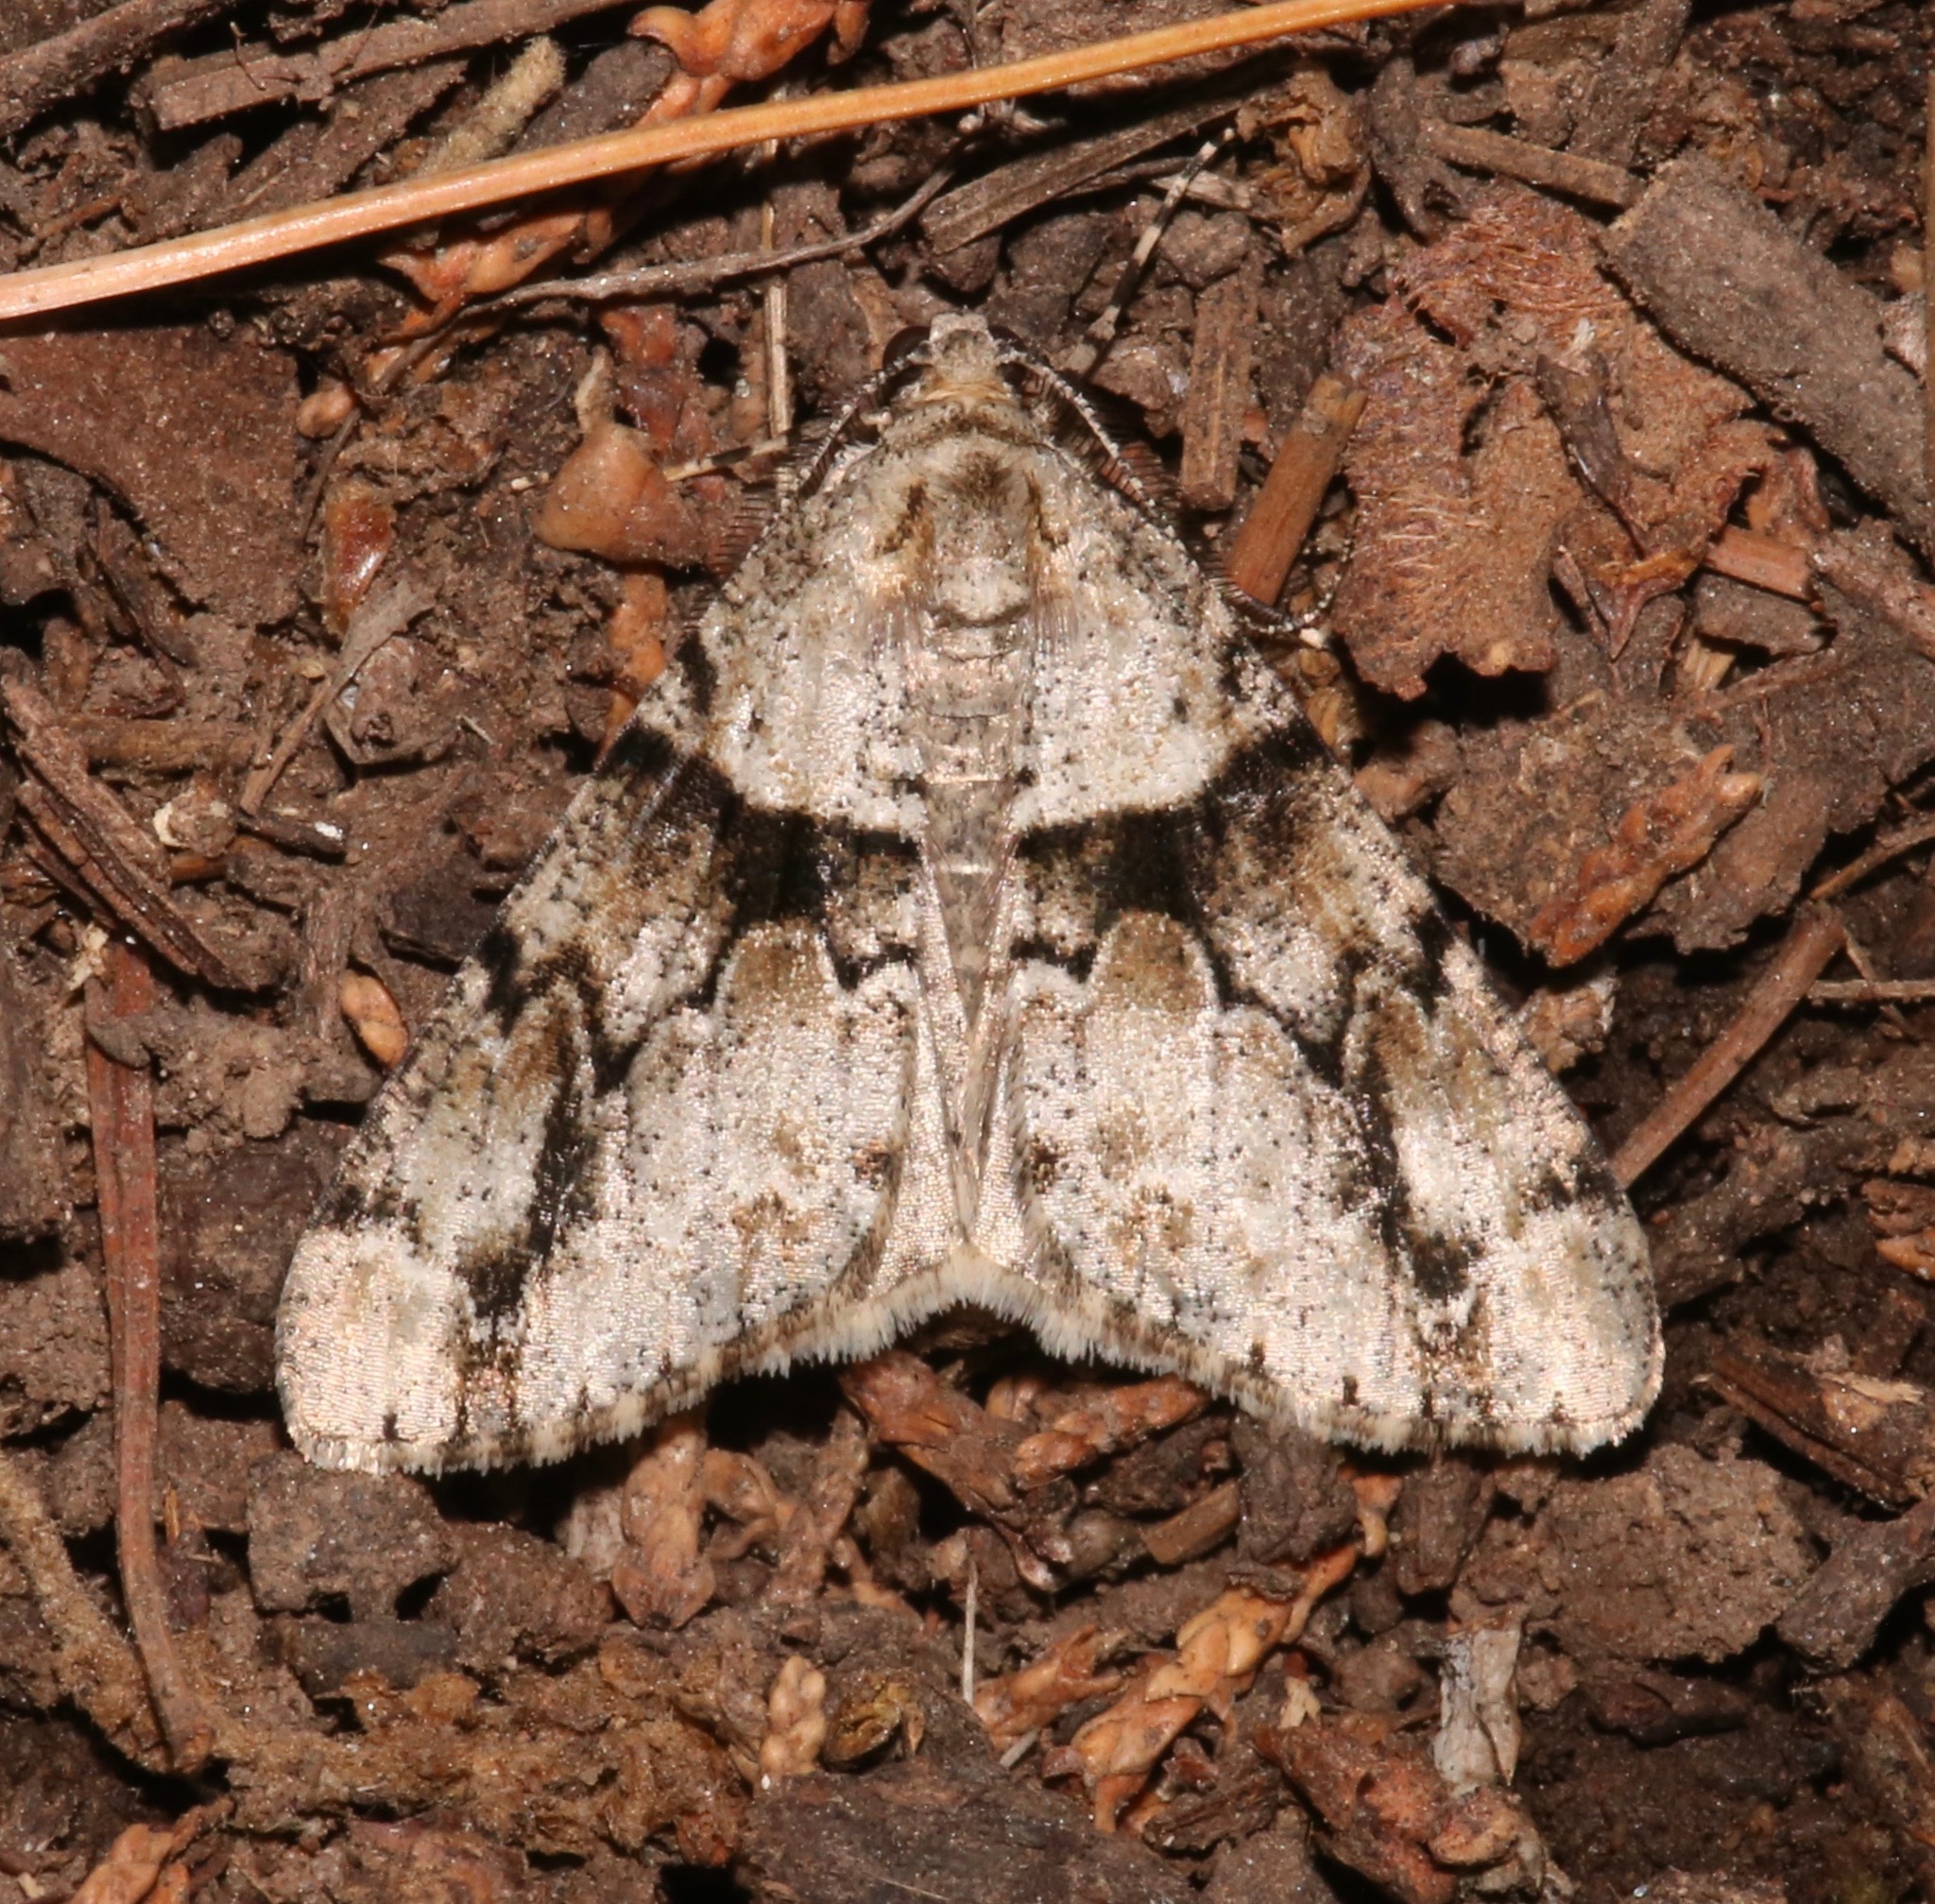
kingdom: Animalia
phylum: Arthropoda
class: Insecta
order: Lepidoptera
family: Geometridae
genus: Vinemina
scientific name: Vinemina opacaria
